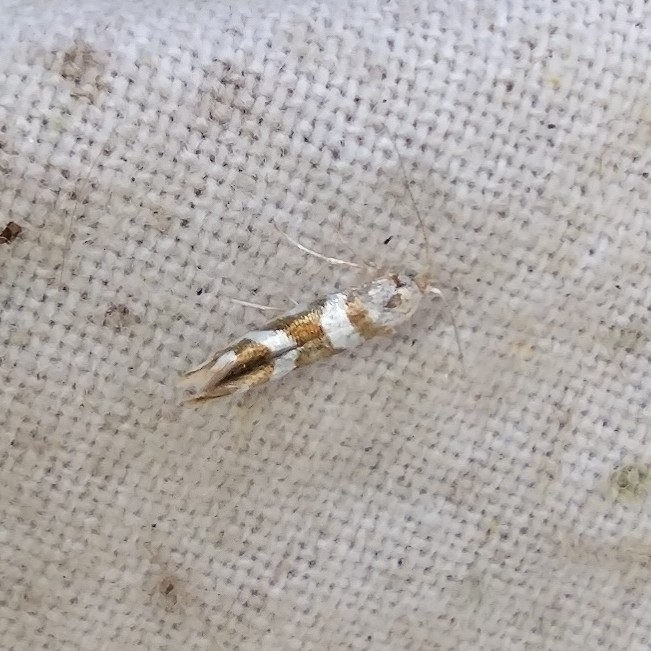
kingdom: Animalia
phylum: Arthropoda
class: Insecta
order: Lepidoptera
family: Argyresthiidae
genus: Argyresthia
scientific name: Argyresthia goedartella
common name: Golden argent
